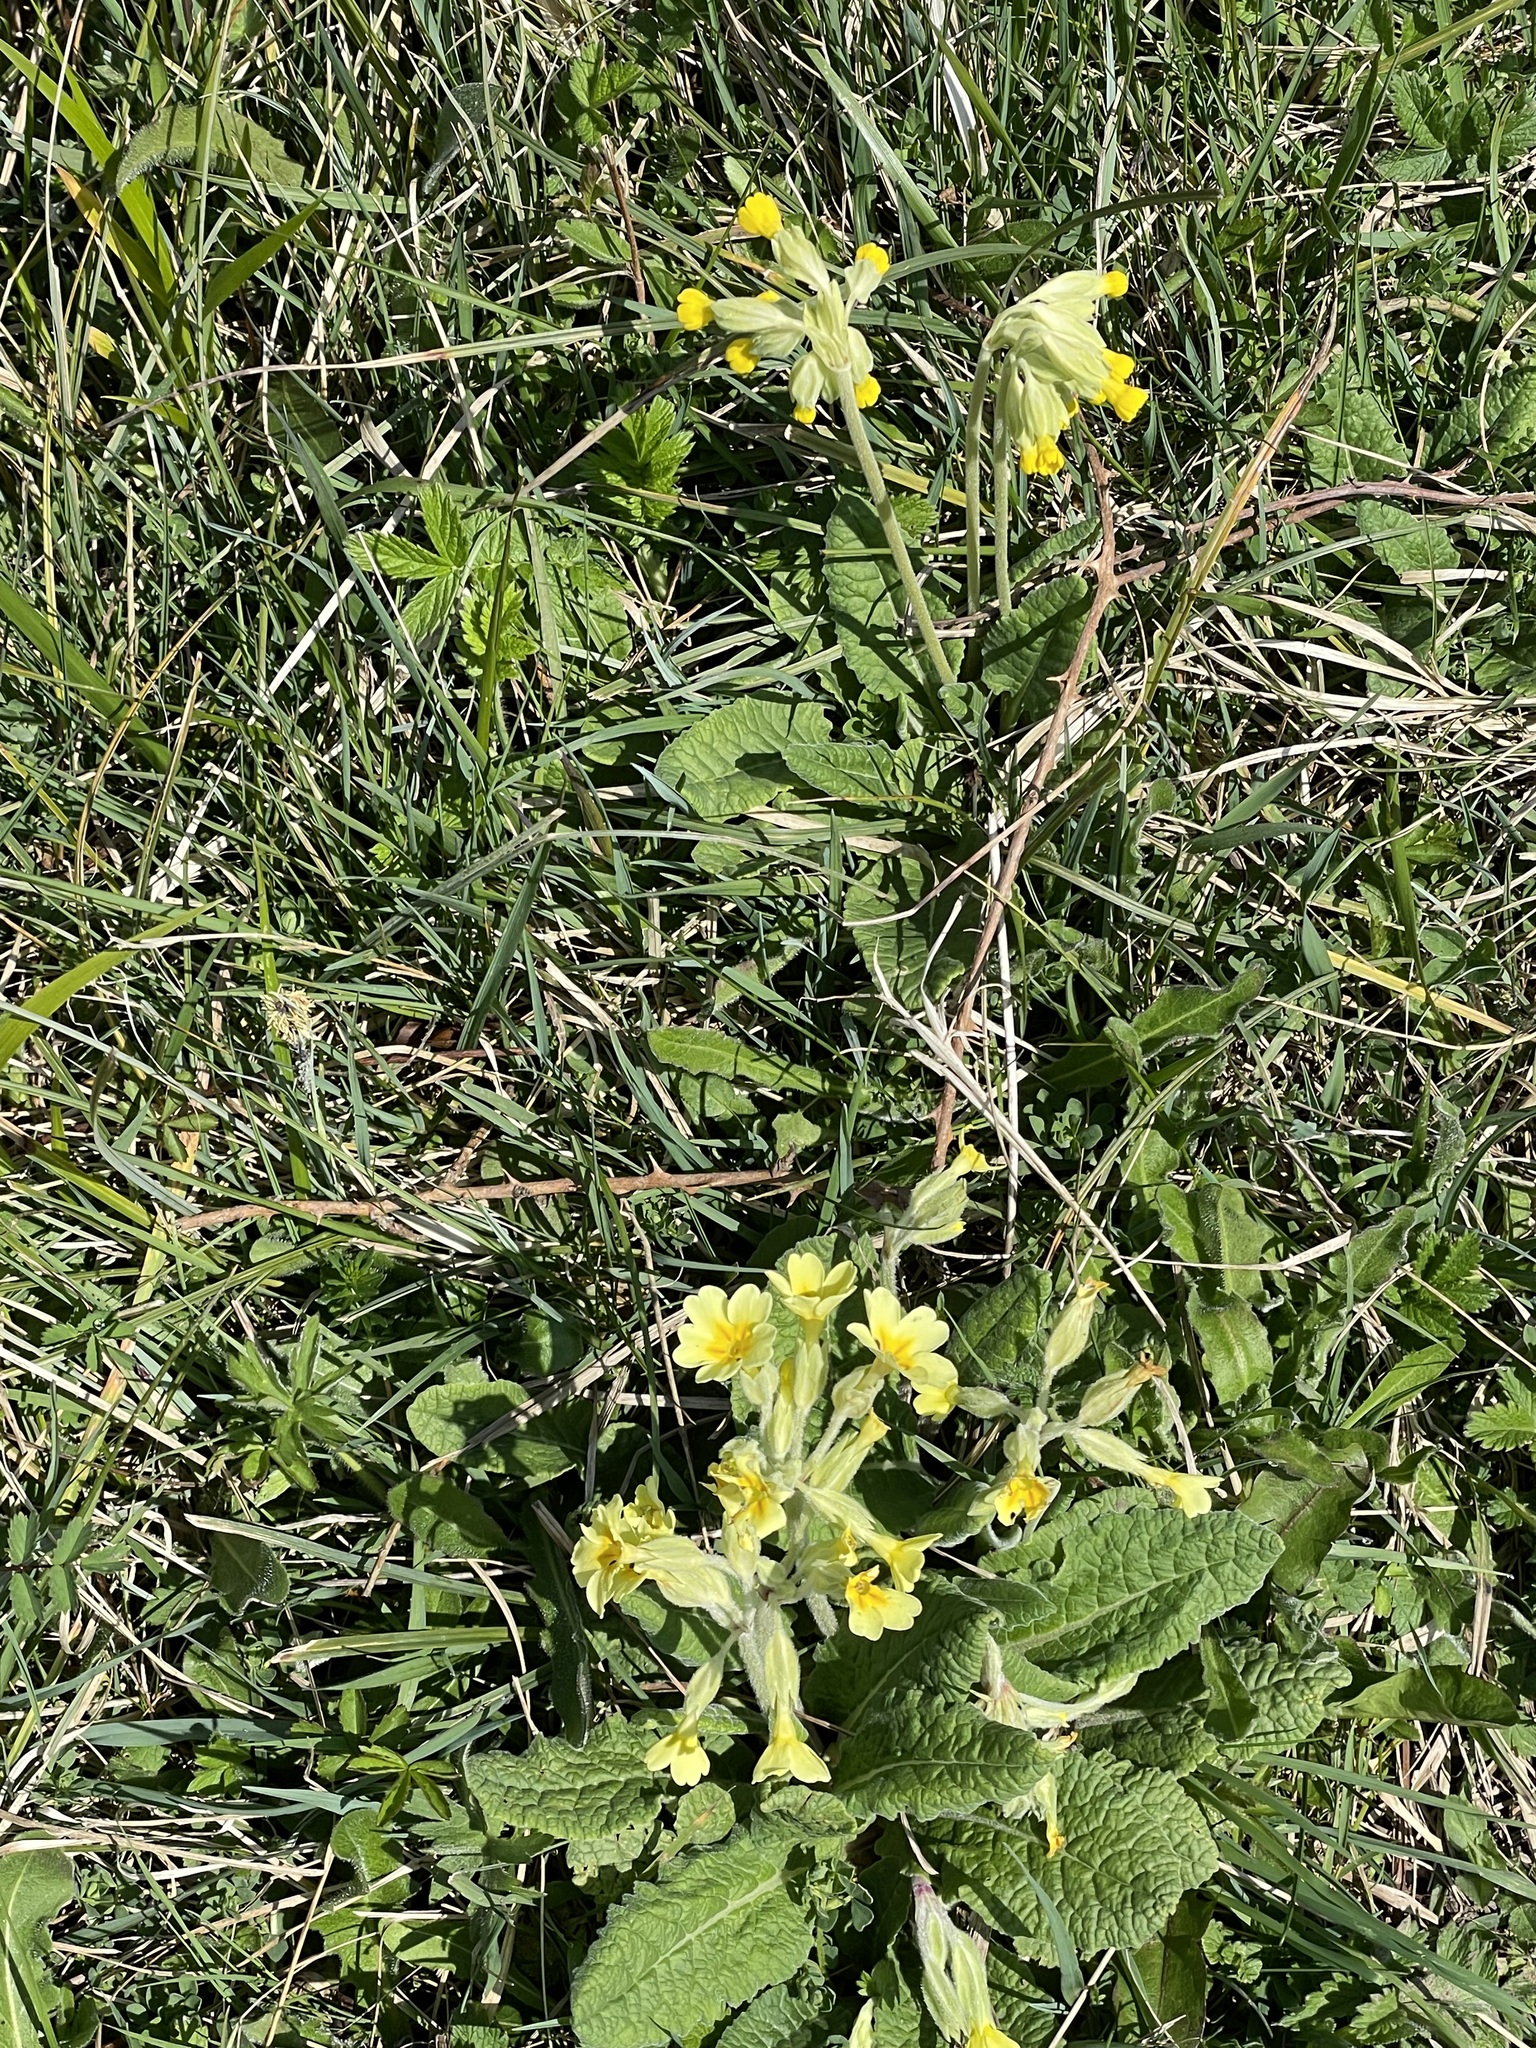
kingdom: Plantae
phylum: Tracheophyta
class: Magnoliopsida
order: Ericales
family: Primulaceae
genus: Primula
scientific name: Primula veris
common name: Cowslip
